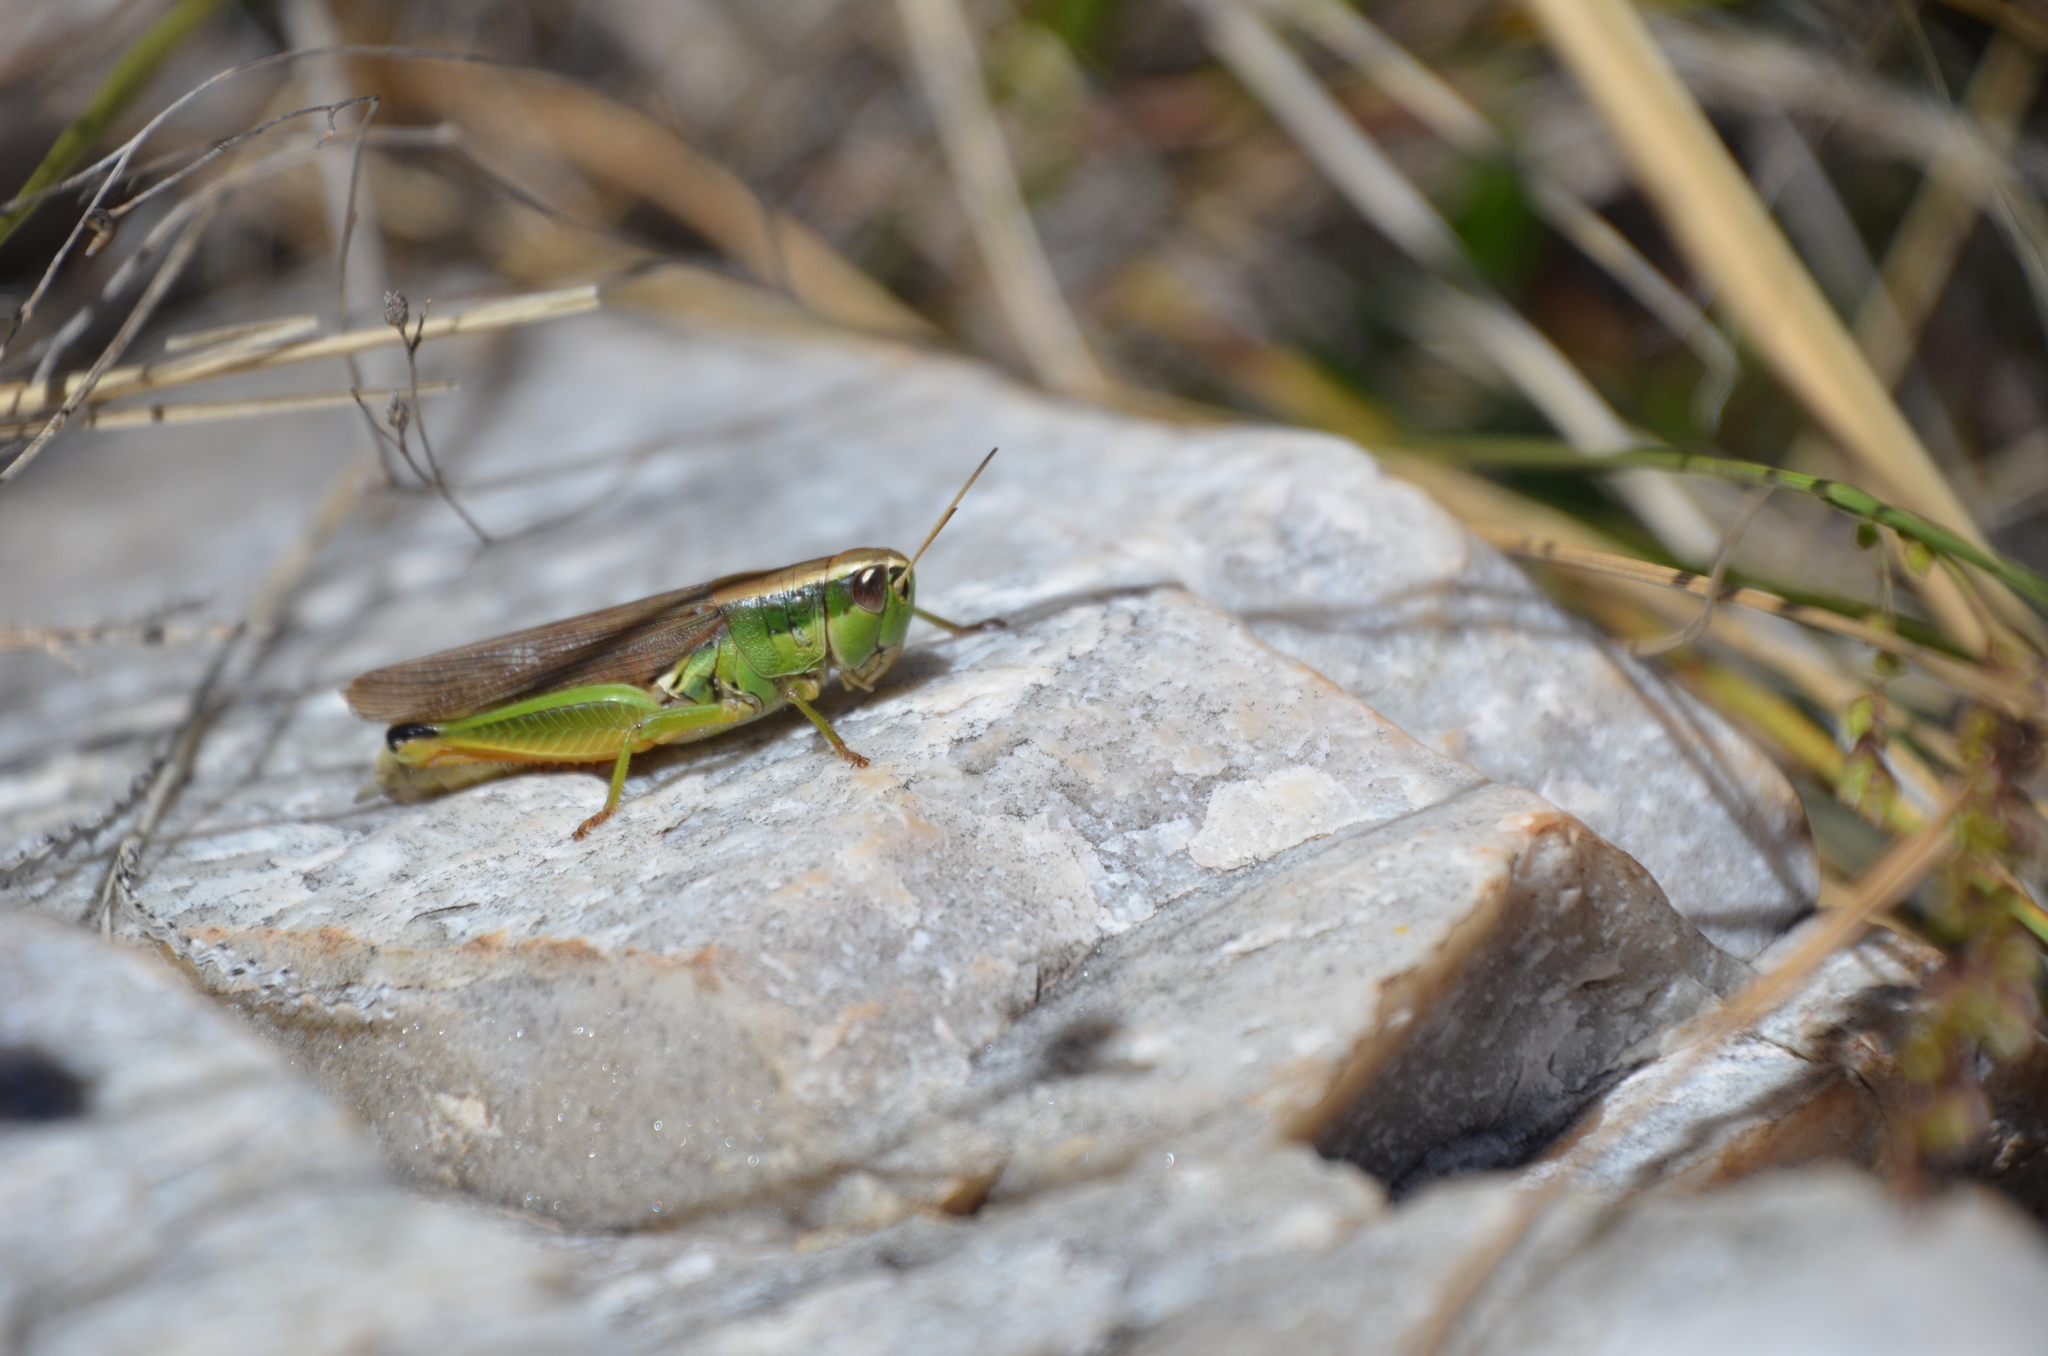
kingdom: Animalia
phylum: Arthropoda
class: Insecta
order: Orthoptera
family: Acrididae
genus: Scotussa
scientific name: Scotussa cliens
